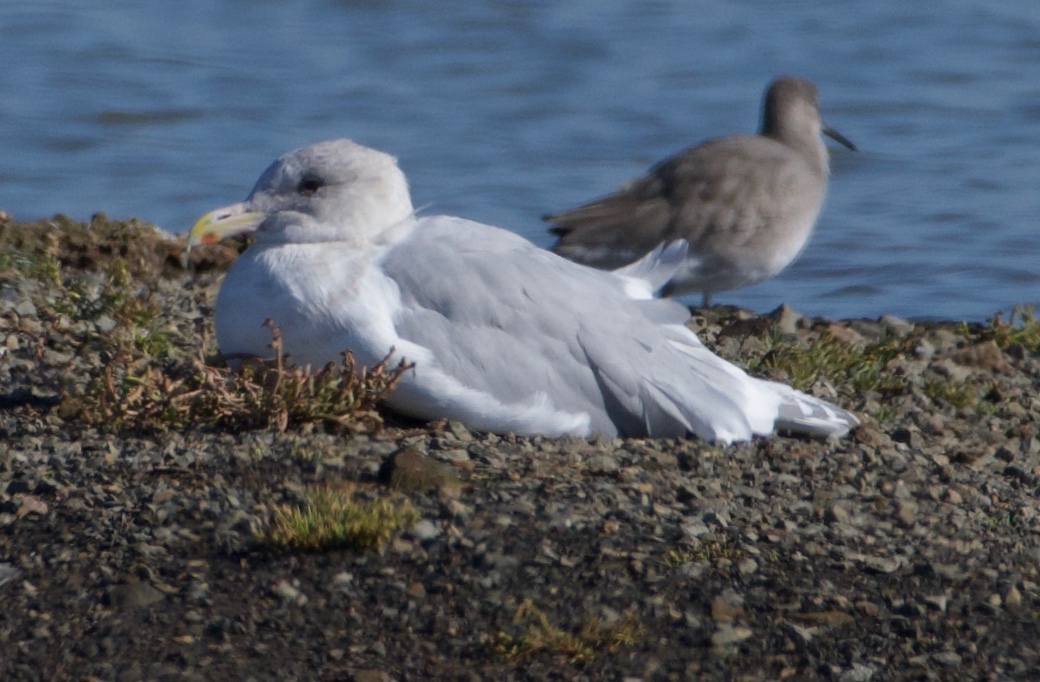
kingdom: Animalia
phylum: Chordata
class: Aves
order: Charadriiformes
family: Laridae
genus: Larus
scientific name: Larus glaucescens
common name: Glaucous-winged gull
